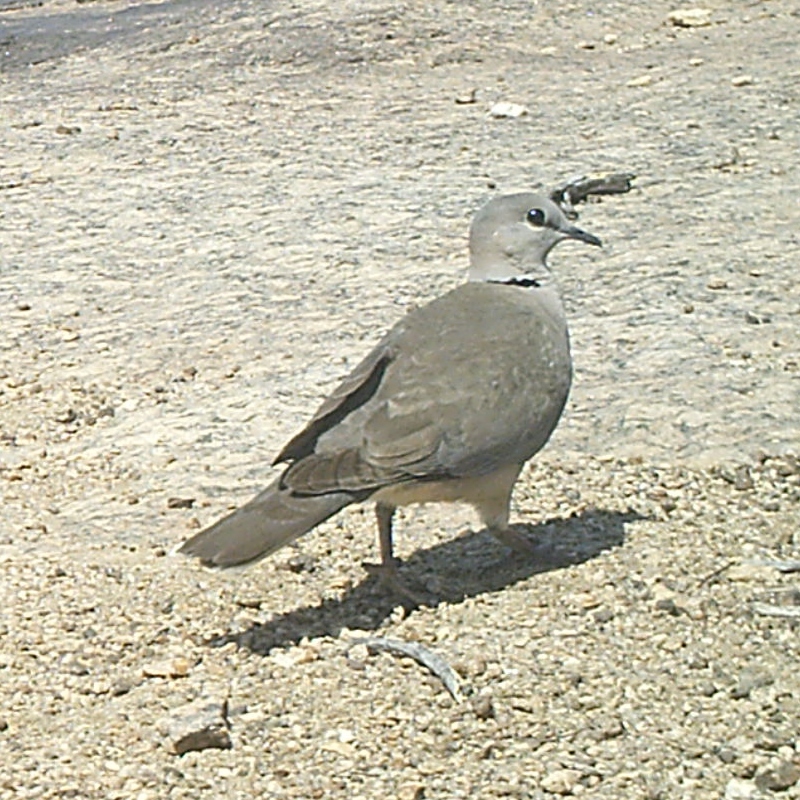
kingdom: Animalia
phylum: Chordata
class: Aves
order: Columbiformes
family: Columbidae
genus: Streptopelia
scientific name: Streptopelia capicola
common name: Ring-necked dove
